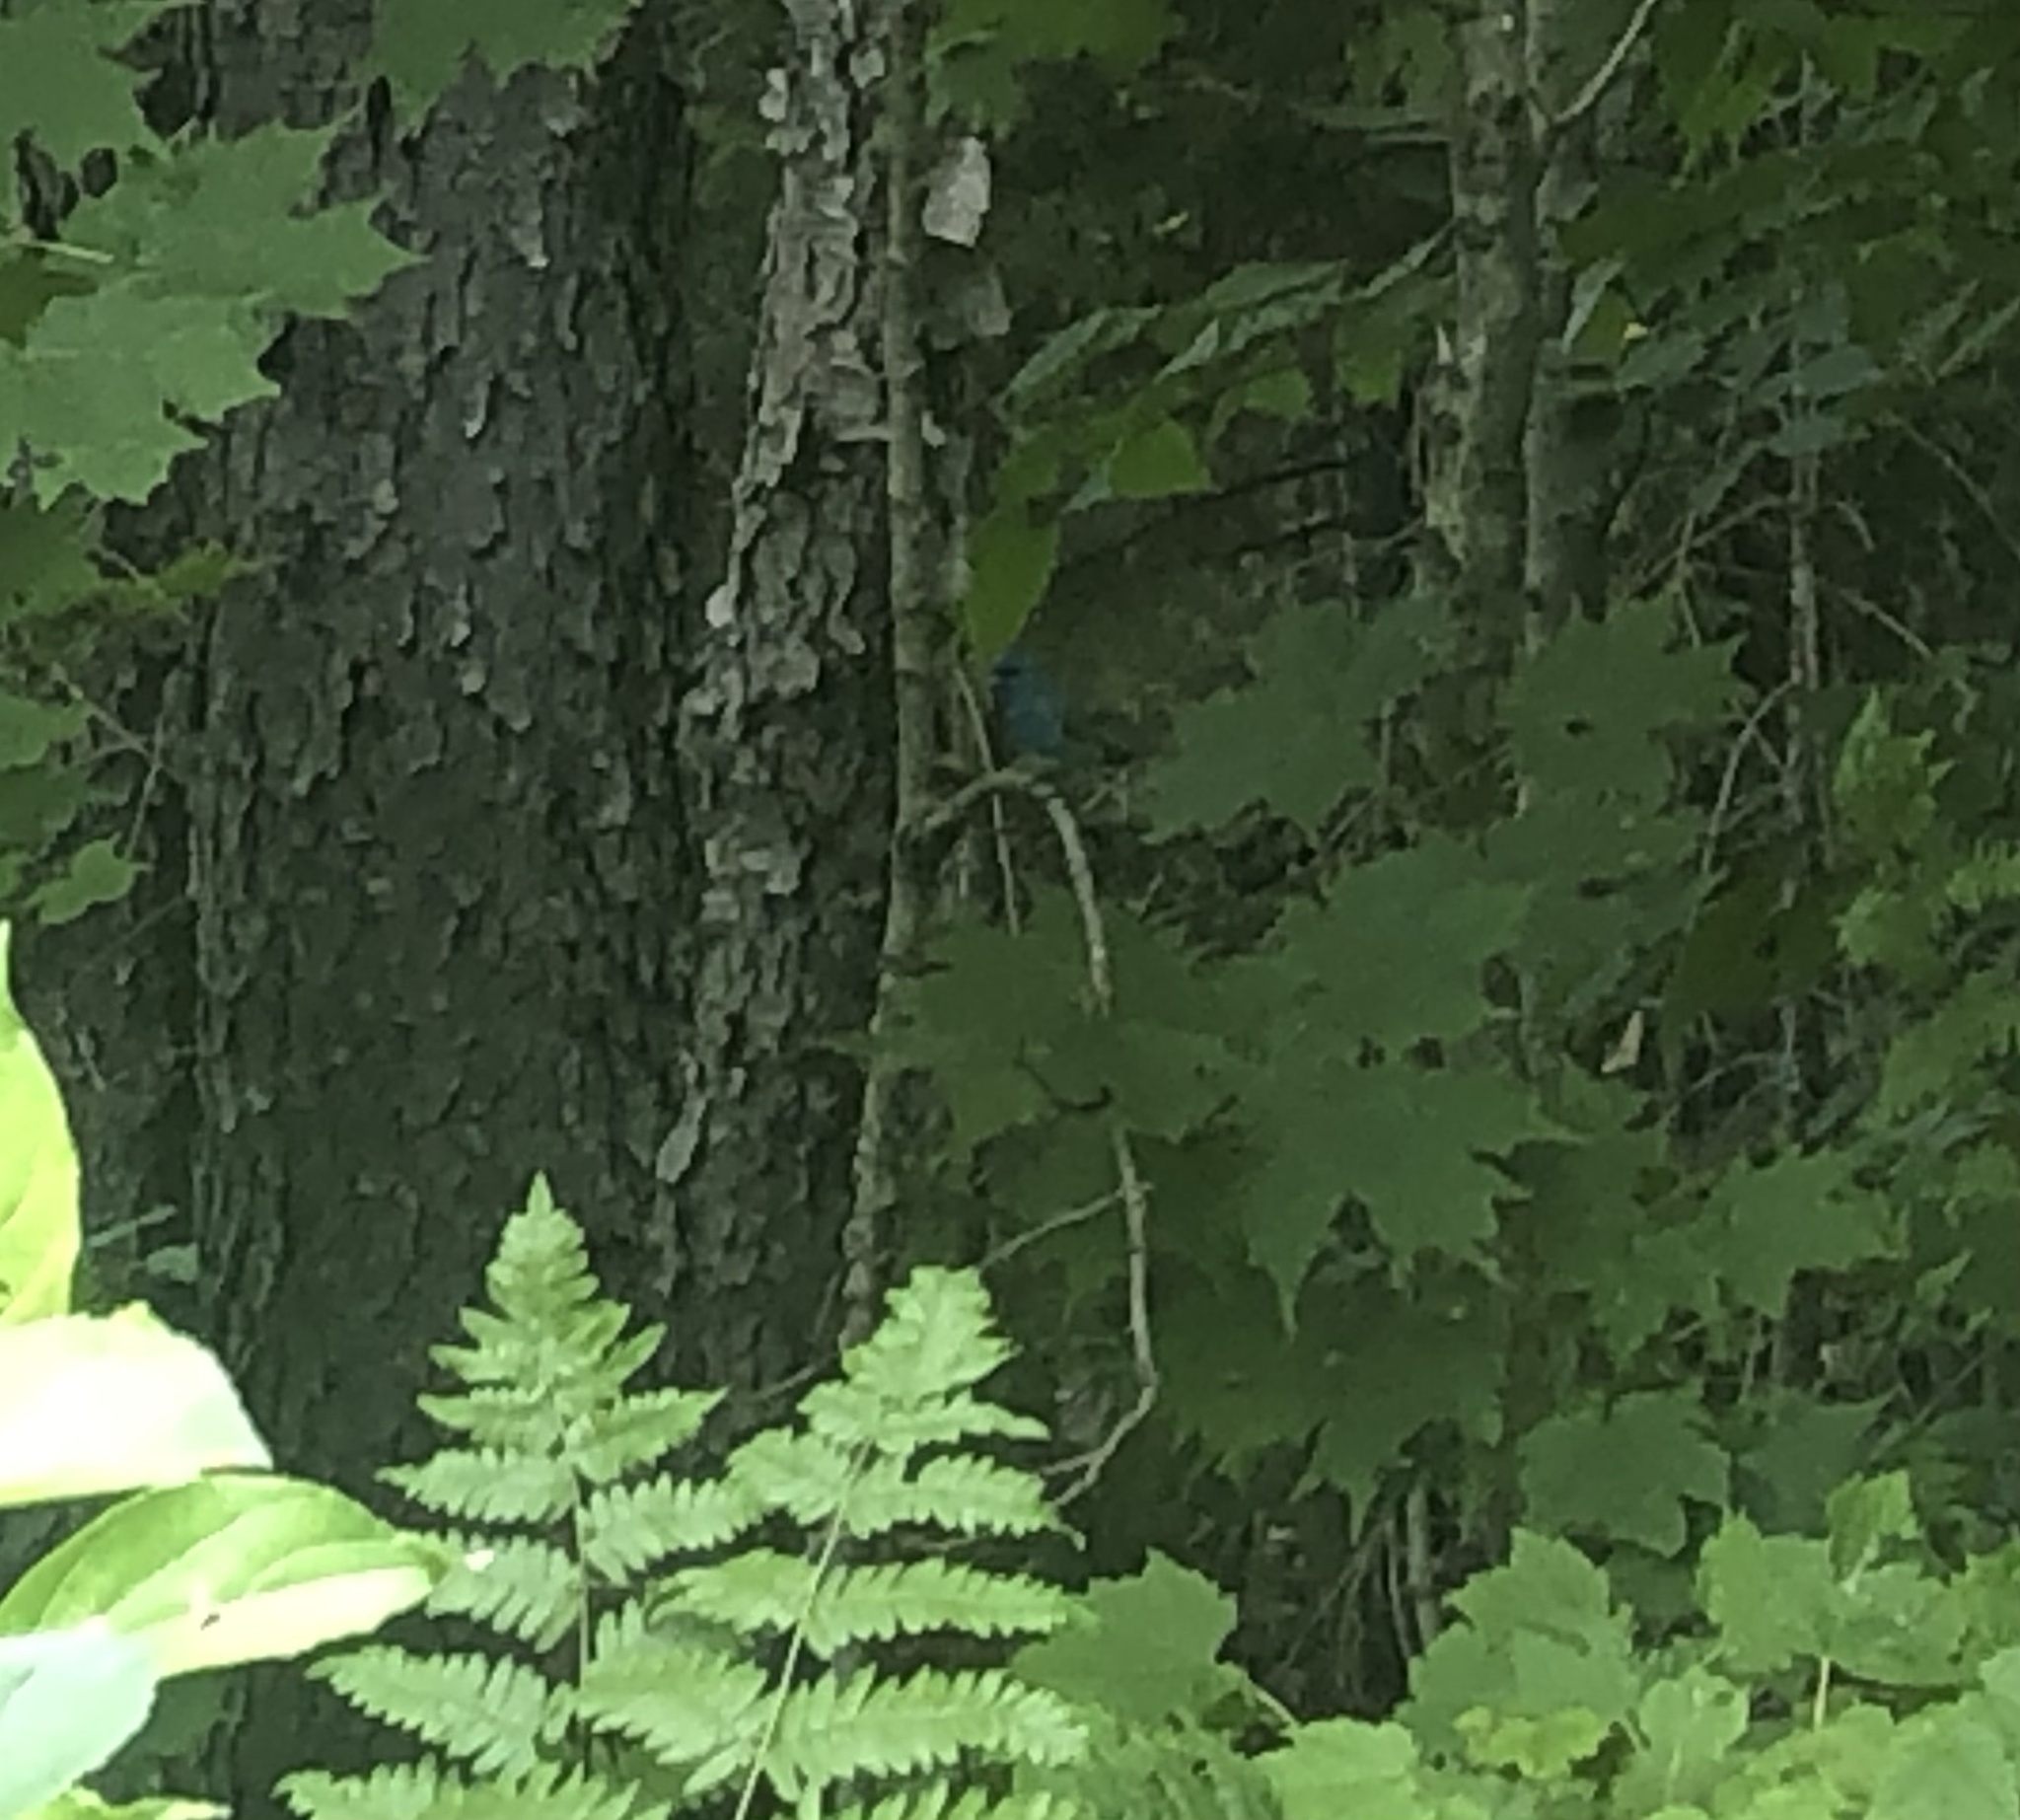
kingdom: Animalia
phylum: Chordata
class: Aves
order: Passeriformes
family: Cardinalidae
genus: Passerina
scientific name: Passerina cyanea
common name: Indigo bunting
